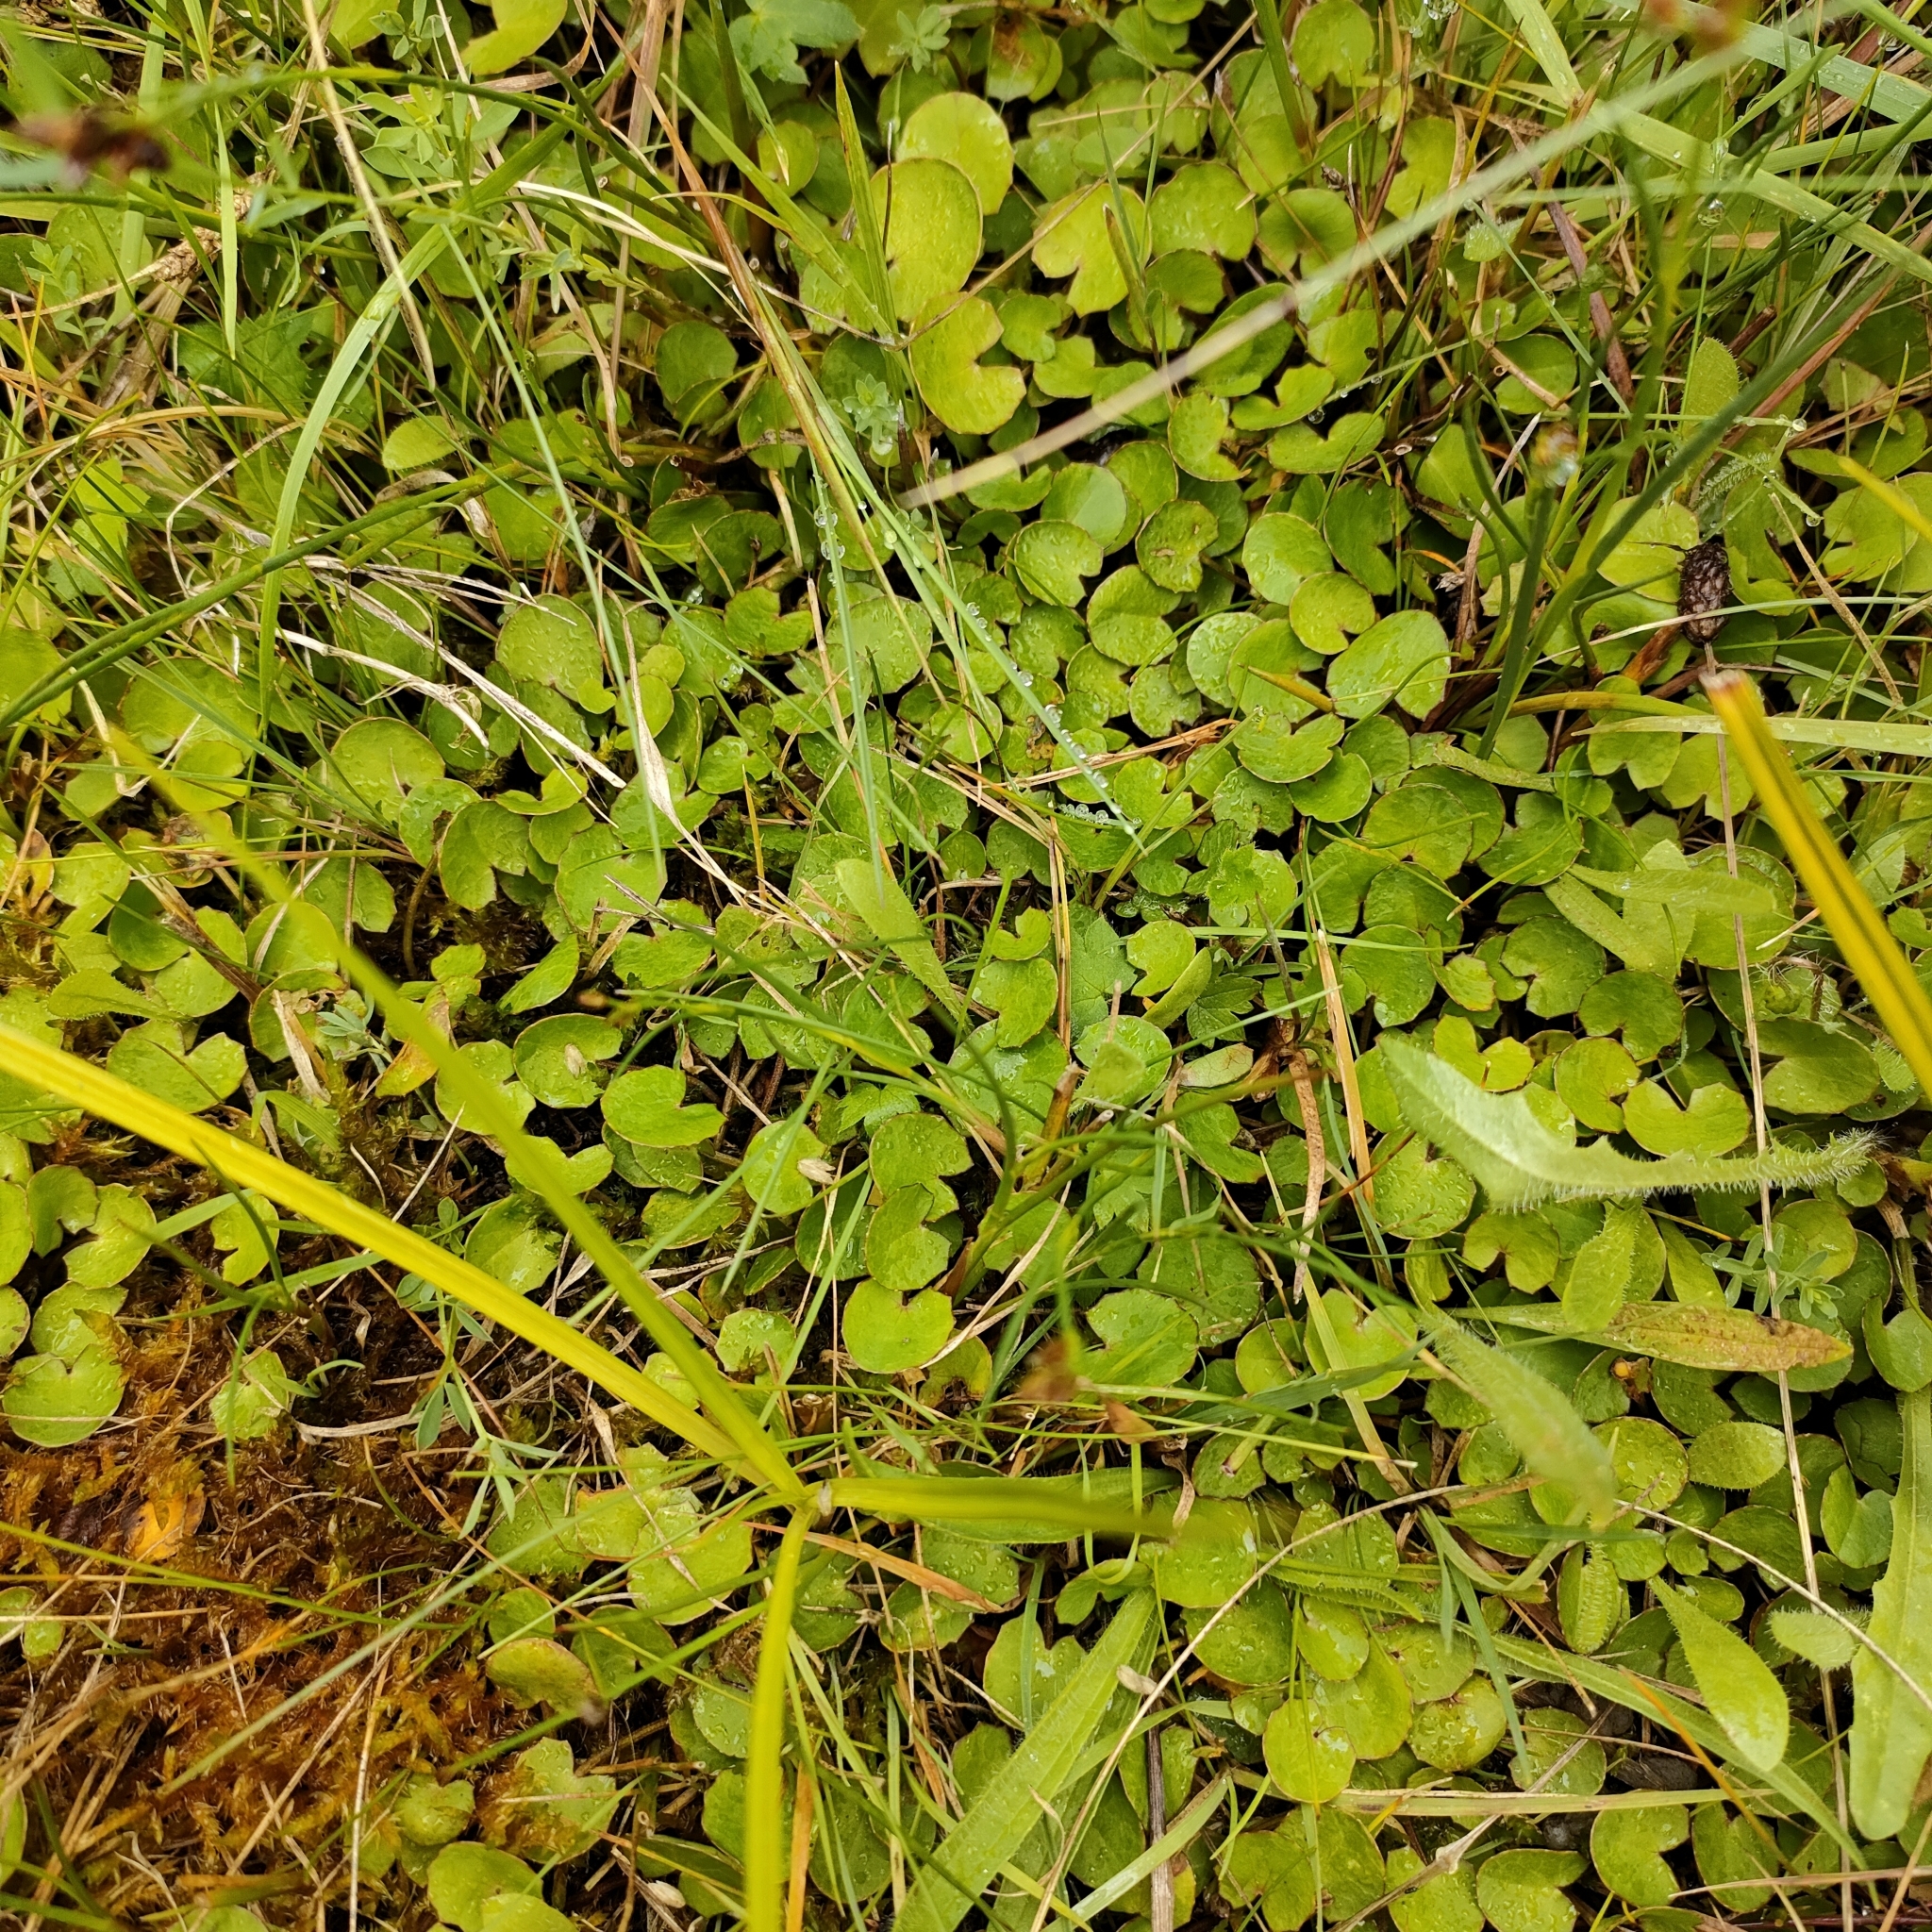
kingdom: Plantae
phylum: Tracheophyta
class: Magnoliopsida
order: Apiales
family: Apiaceae
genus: Centella
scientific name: Centella uniflora
